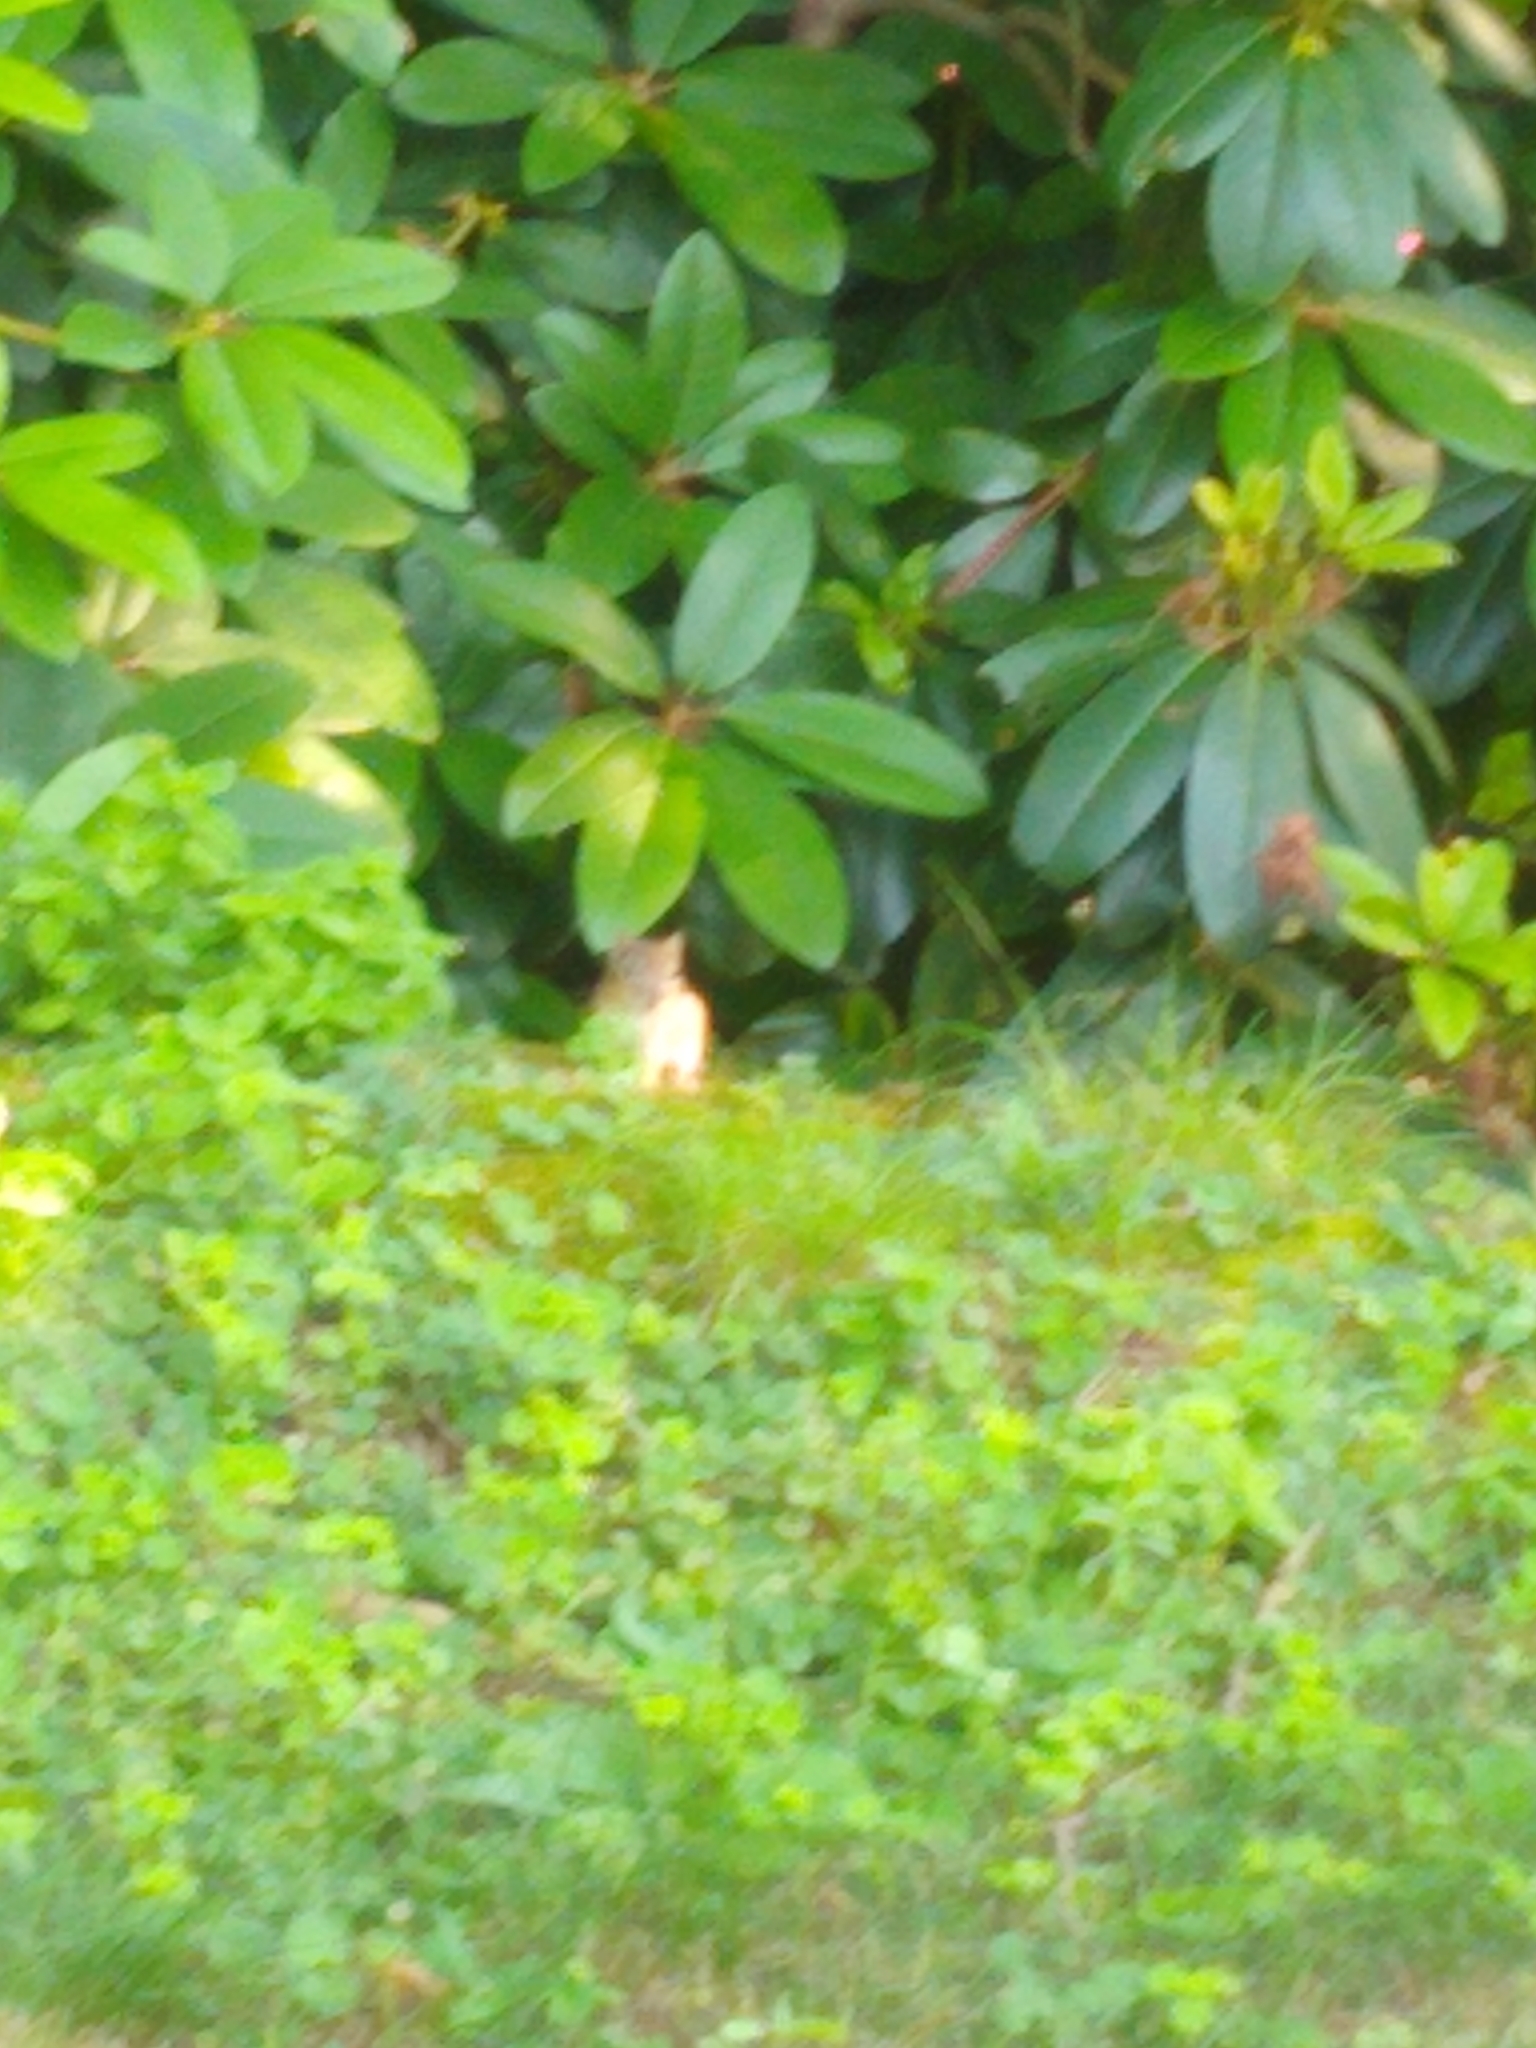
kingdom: Animalia
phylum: Chordata
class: Mammalia
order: Rodentia
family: Sciuridae
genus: Tamias
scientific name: Tamias striatus
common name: Eastern chipmunk
